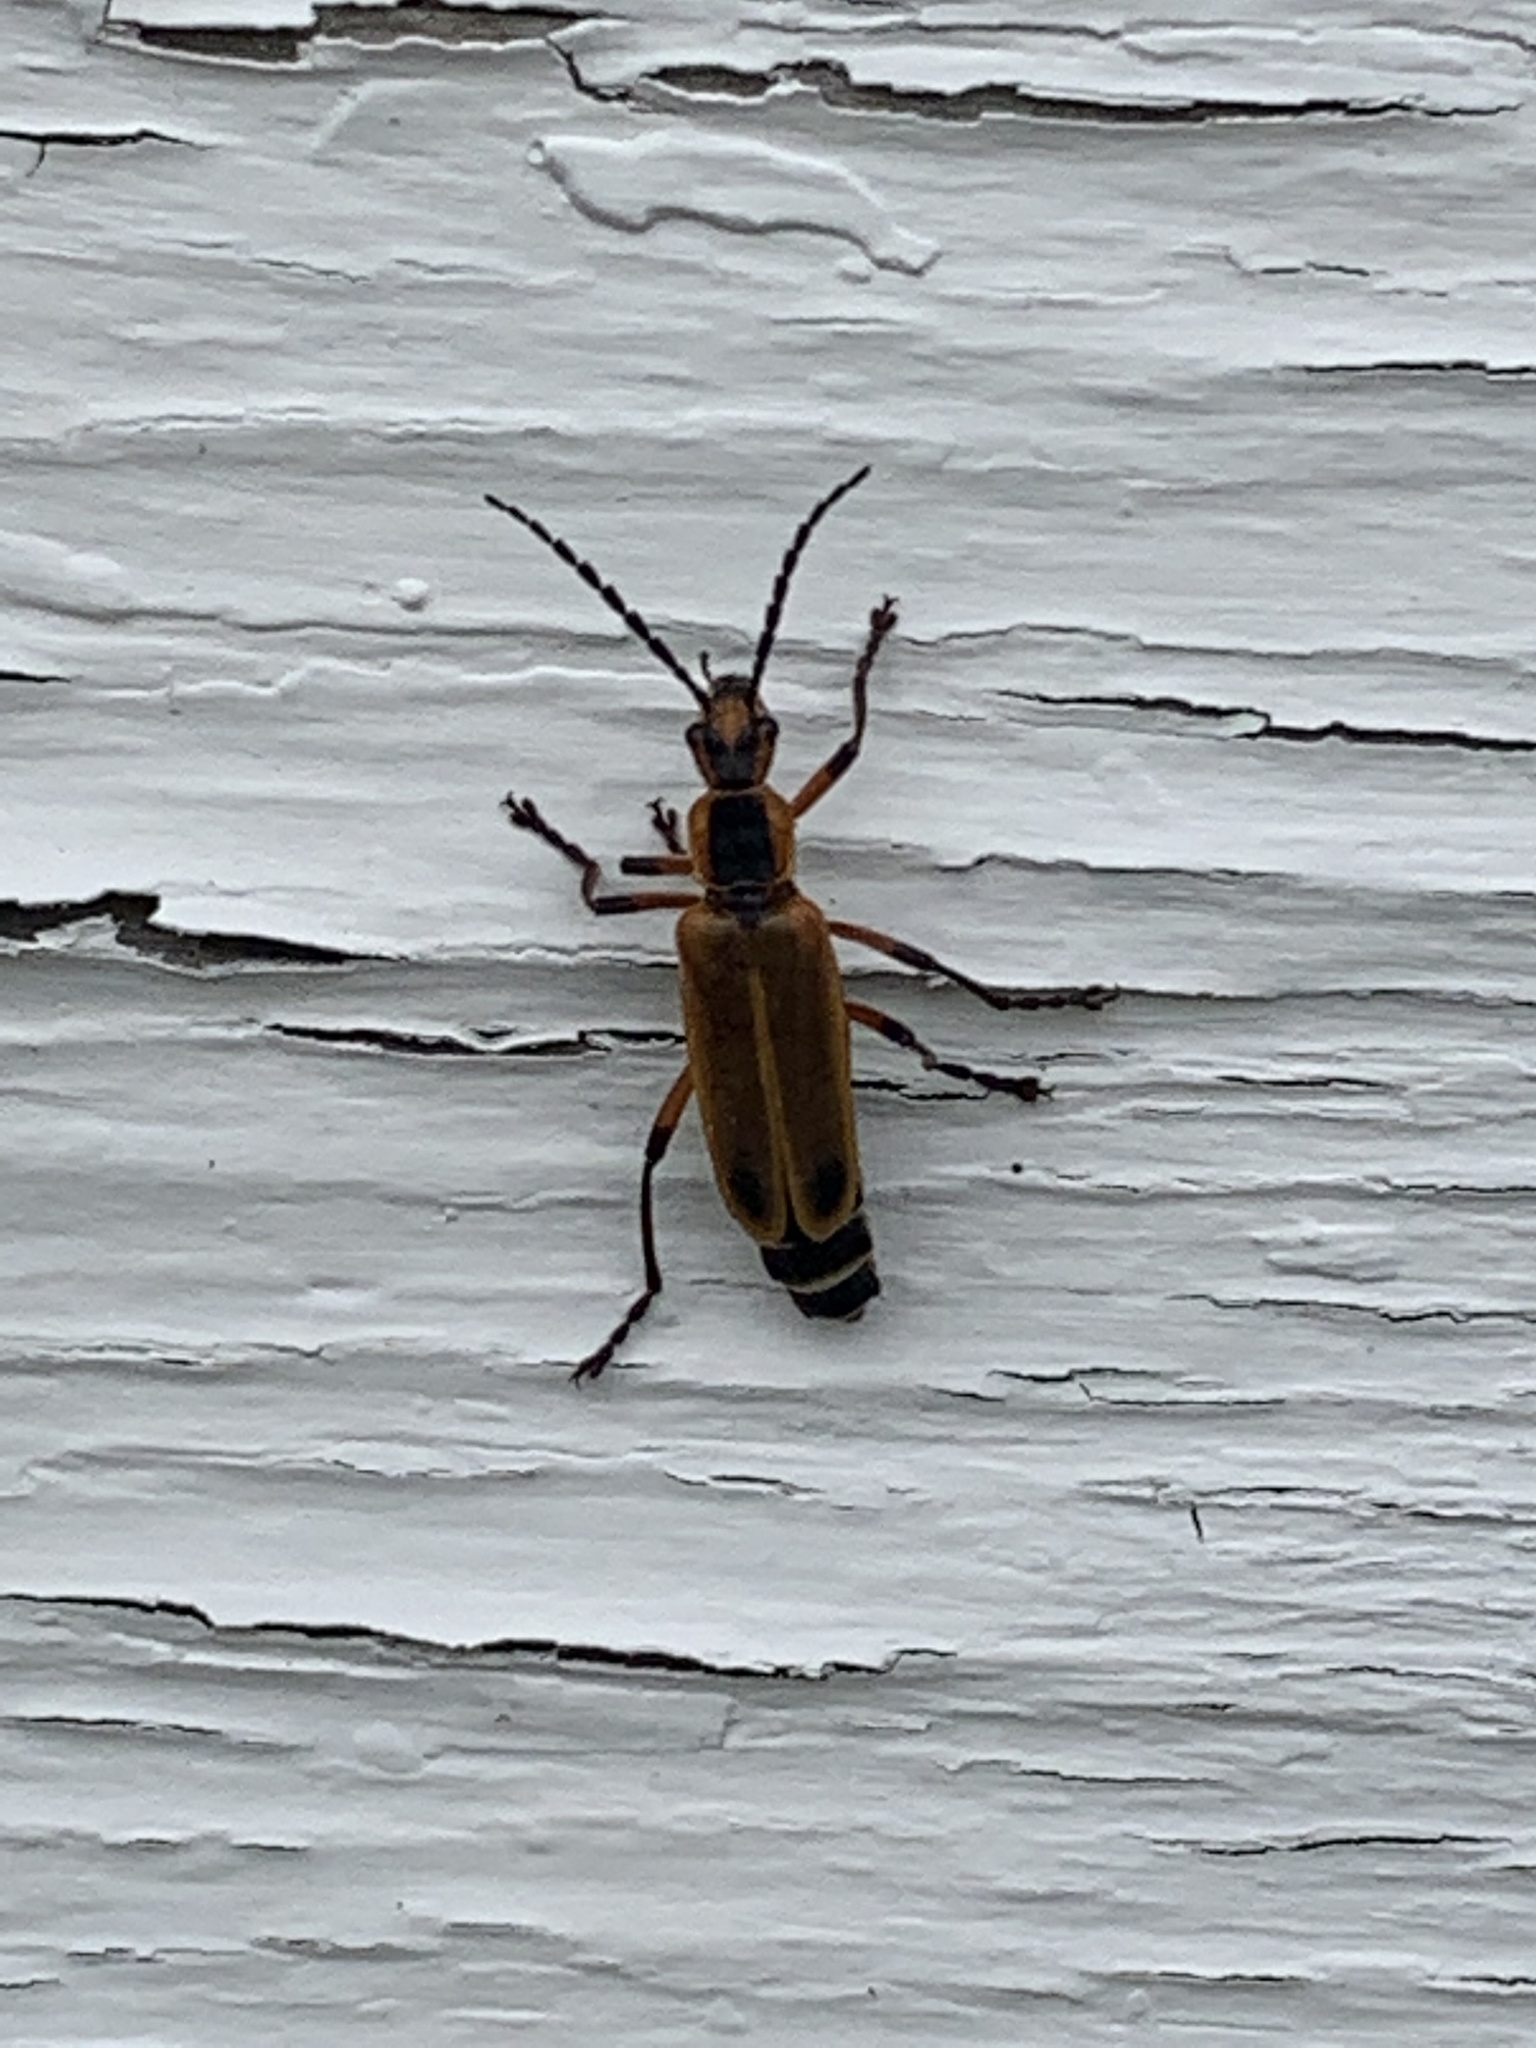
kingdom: Animalia
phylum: Arthropoda
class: Insecta
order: Coleoptera
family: Cantharidae
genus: Chauliognathus
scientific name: Chauliognathus marginatus
